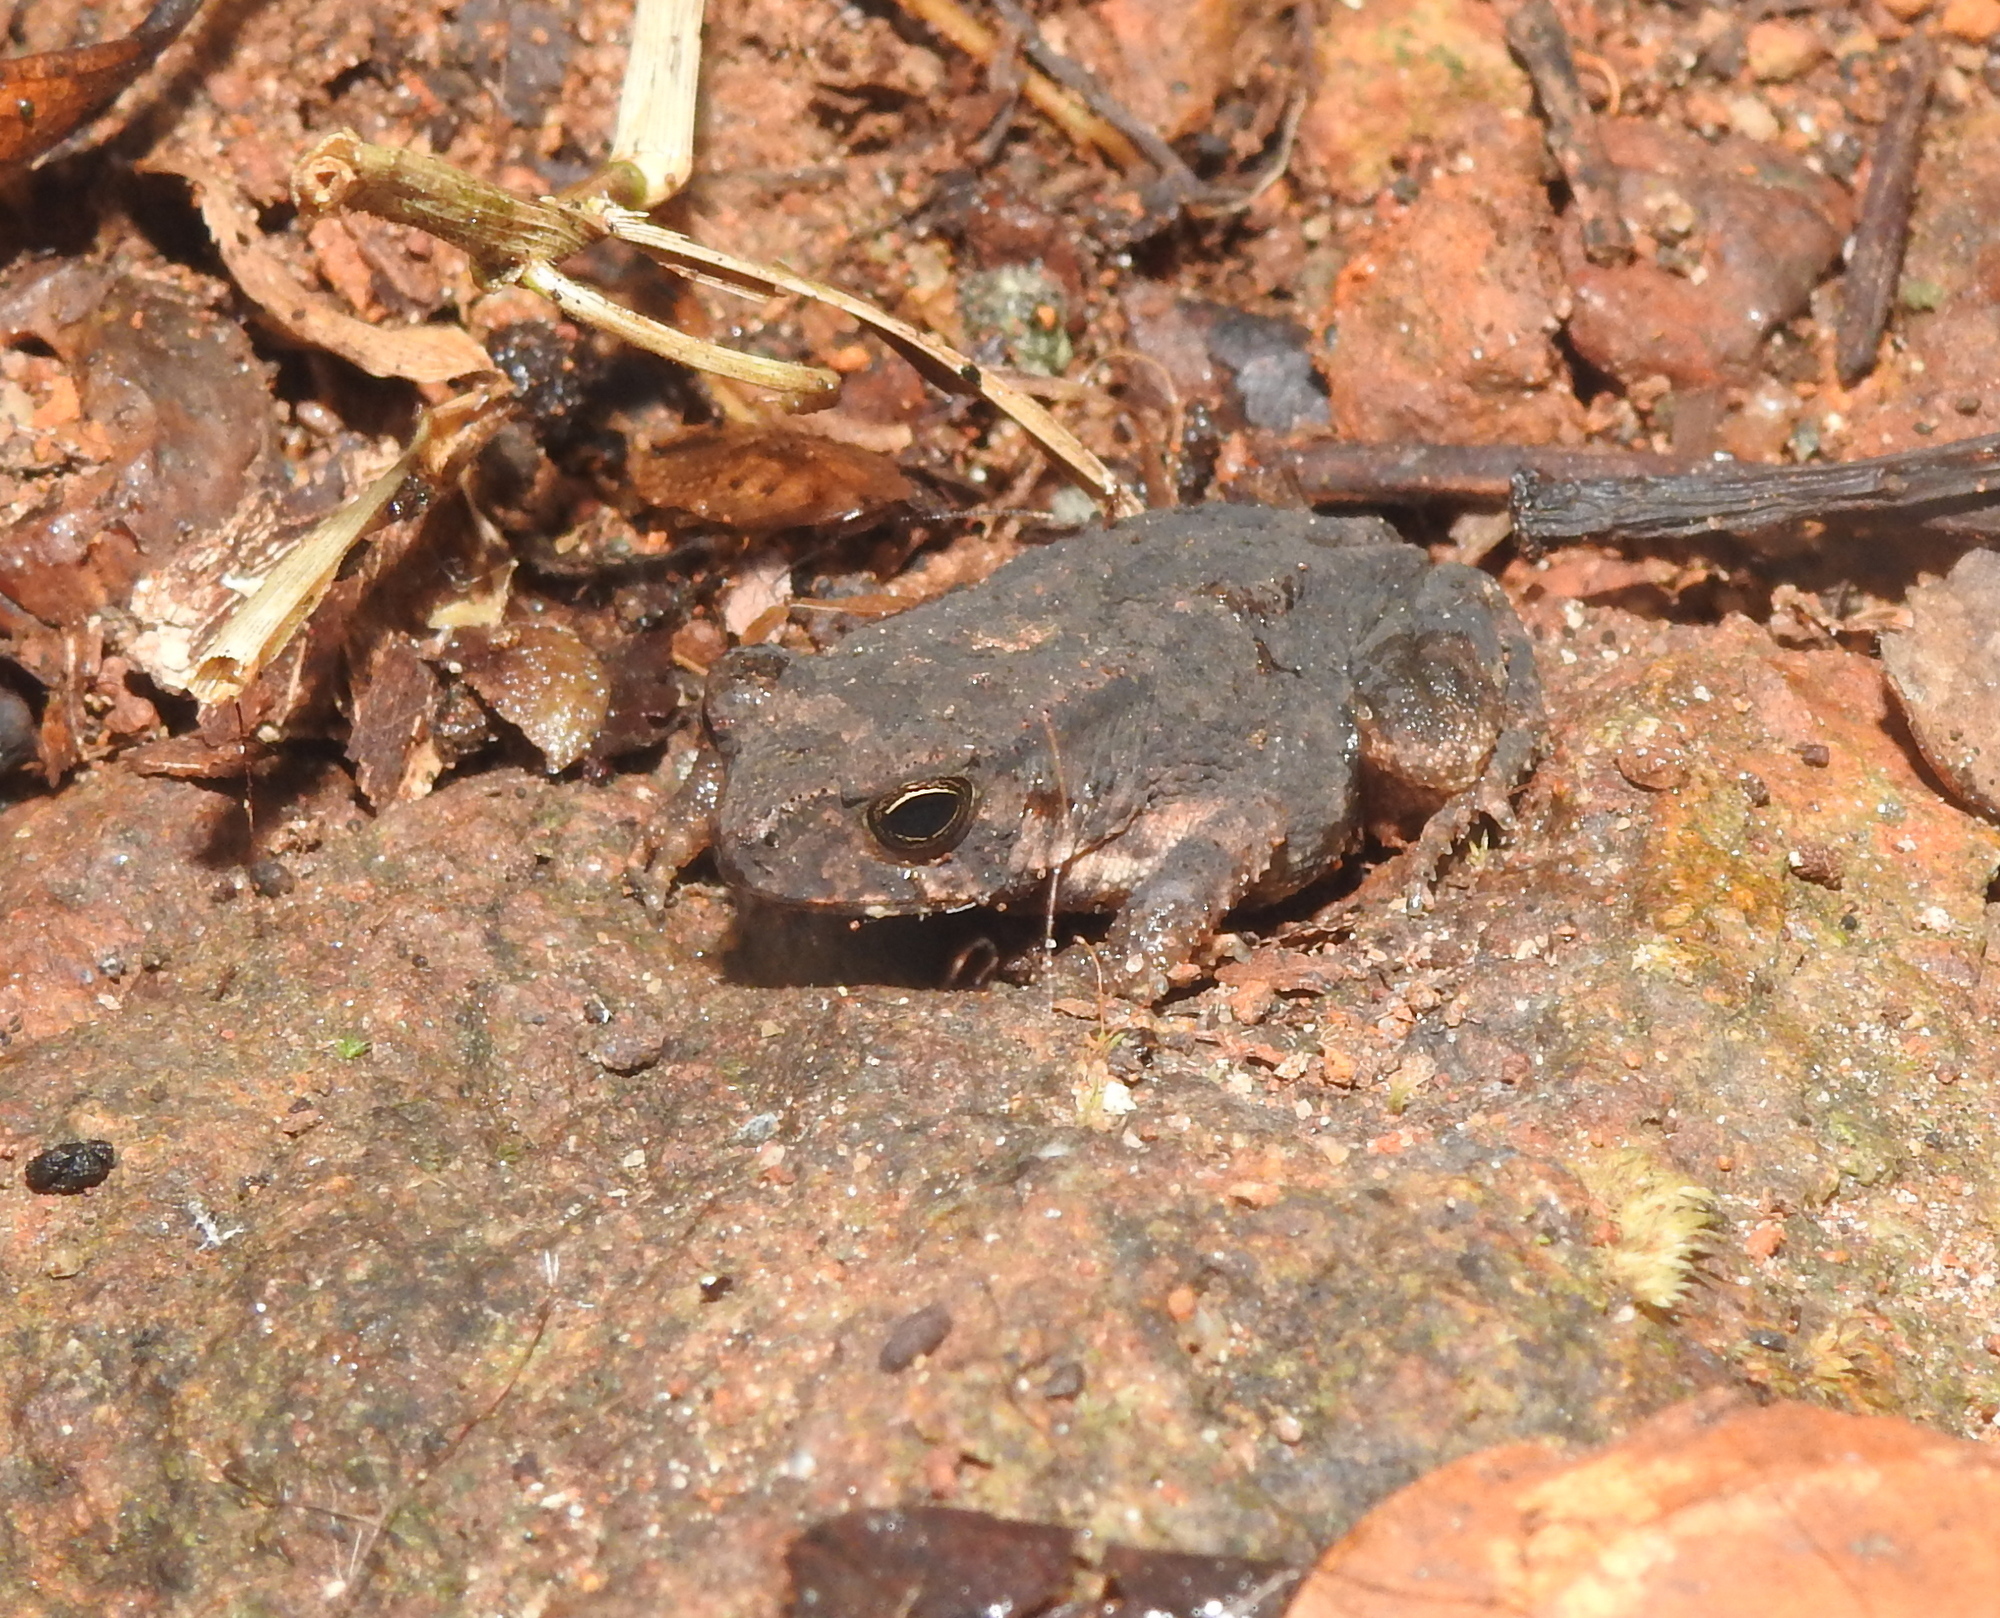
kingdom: Animalia
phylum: Chordata
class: Amphibia
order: Anura
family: Bufonidae
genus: Duttaphrynus
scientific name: Duttaphrynus melanostictus
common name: Common sunda toad
